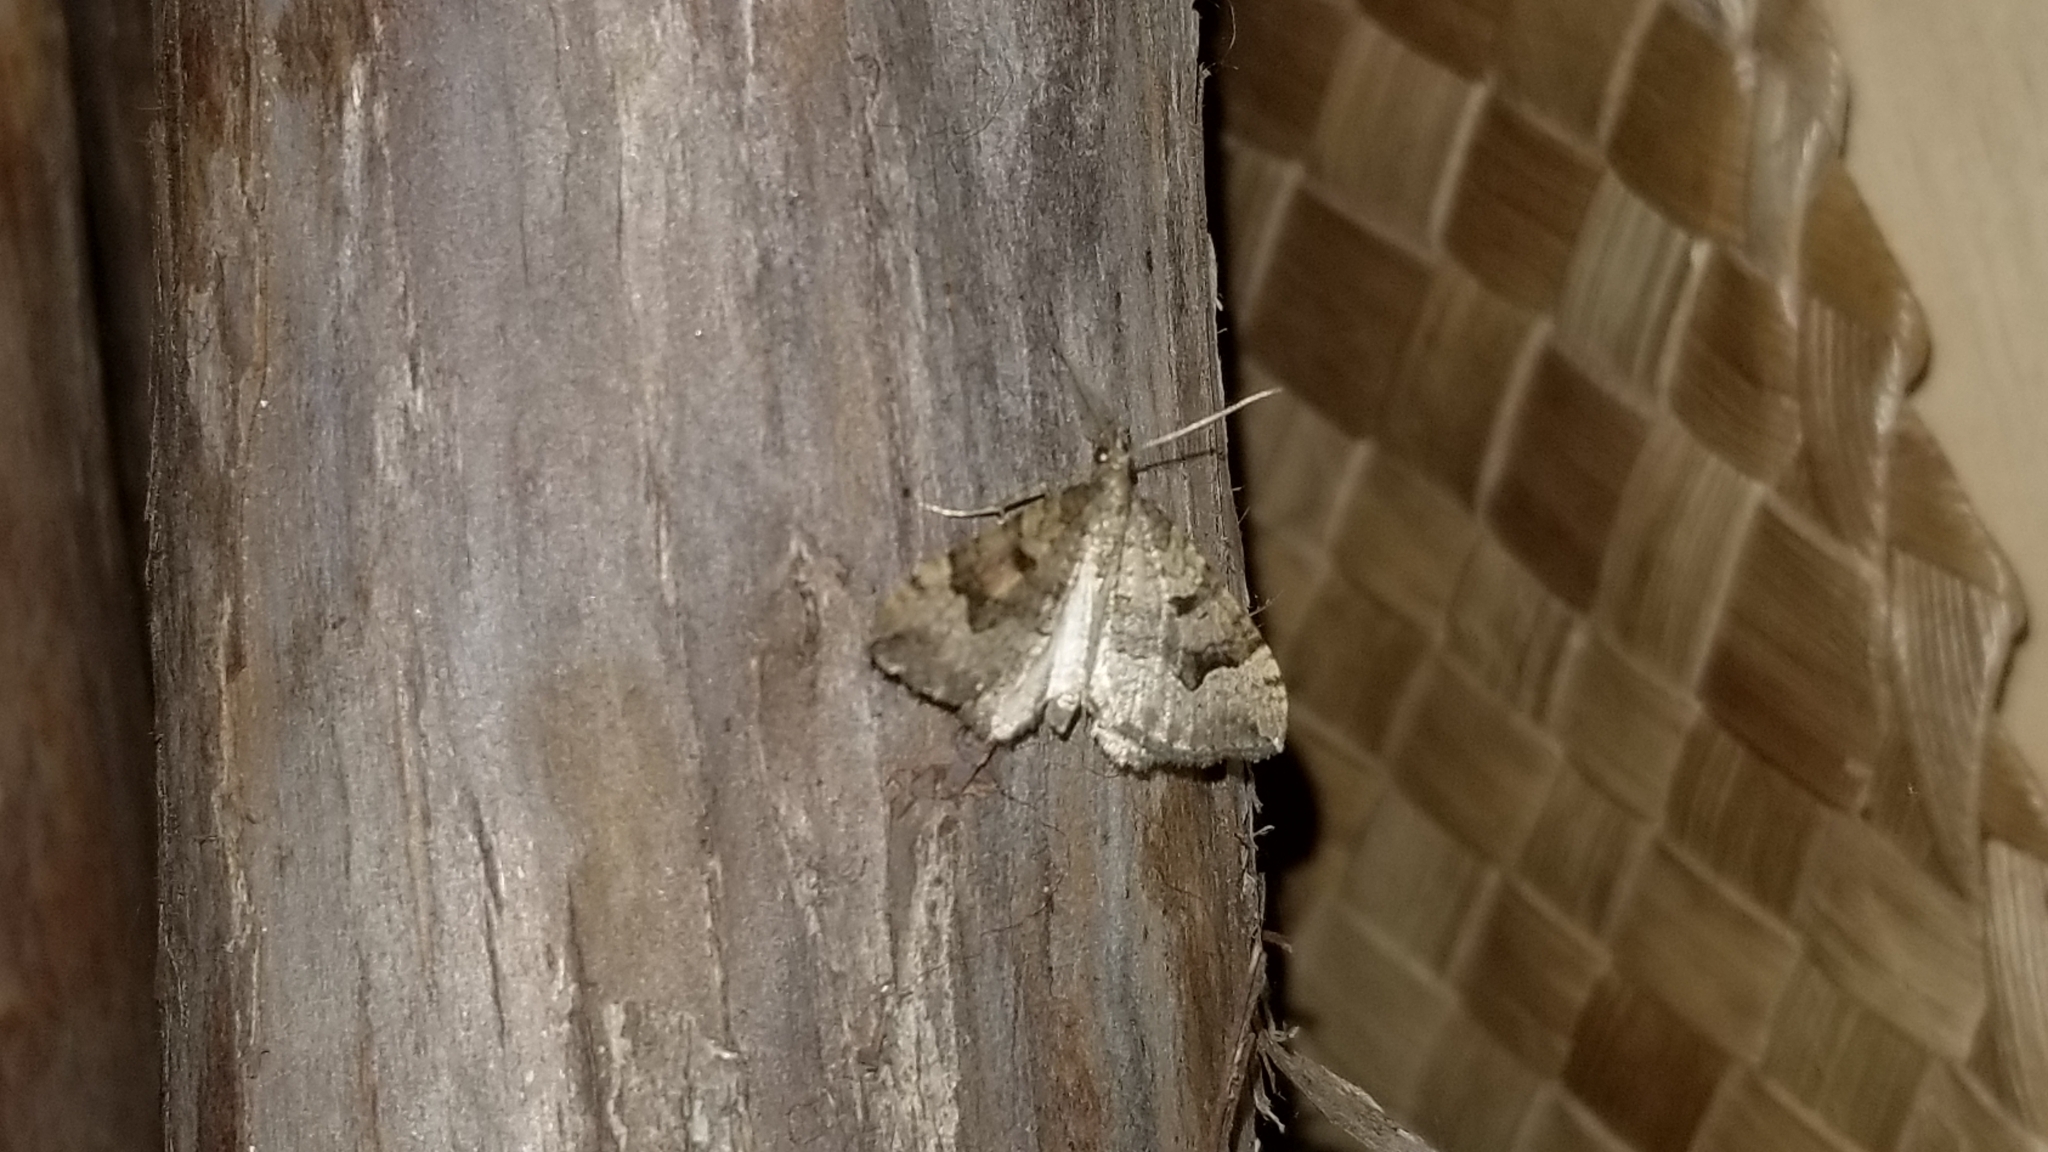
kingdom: Animalia
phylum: Arthropoda
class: Insecta
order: Lepidoptera
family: Geometridae
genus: Epyaxa
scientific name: Epyaxa rosearia
